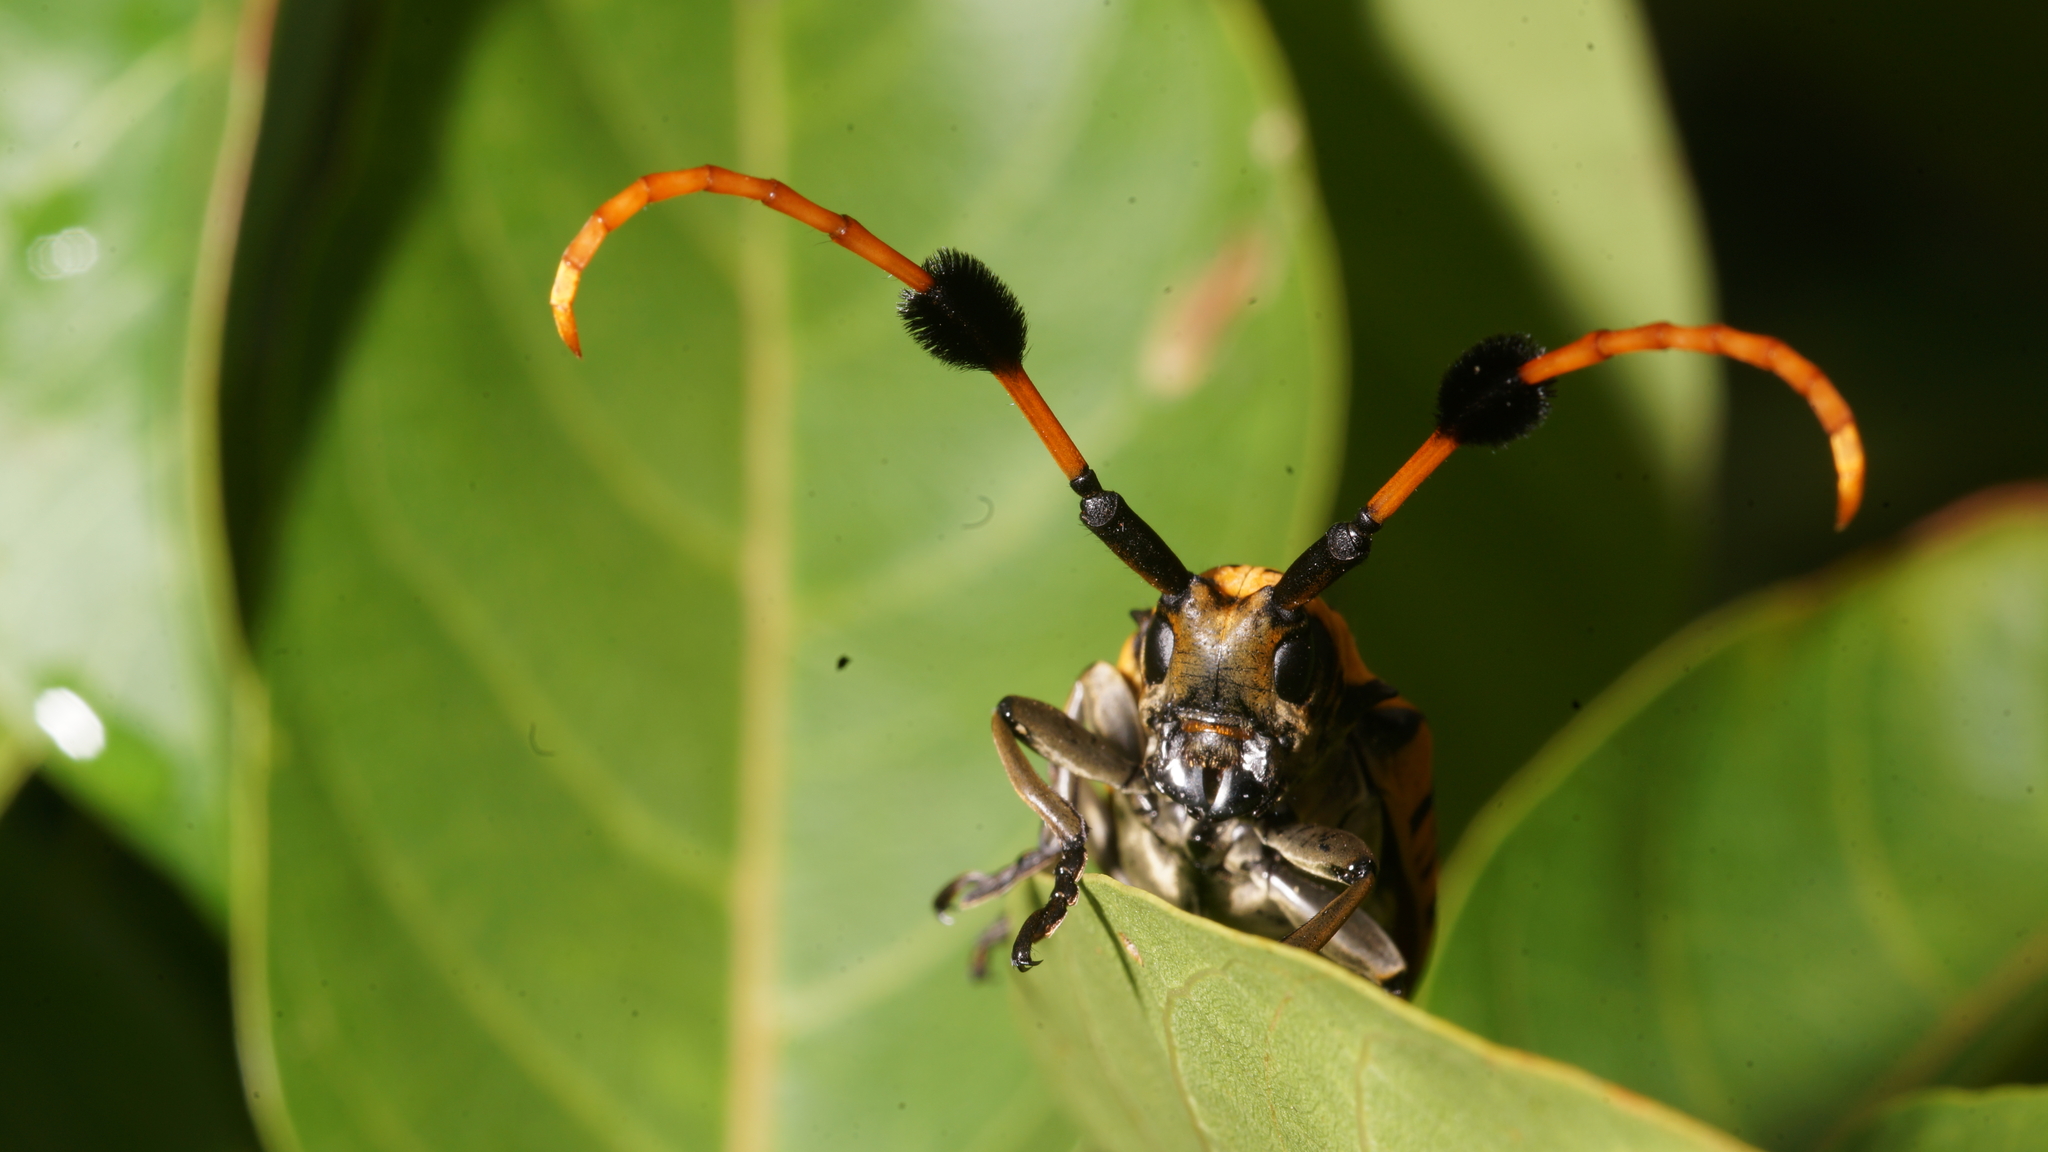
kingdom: Animalia
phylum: Arthropoda
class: Insecta
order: Coleoptera
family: Cerambycidae
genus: Aristobia
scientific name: Aristobia approximator
